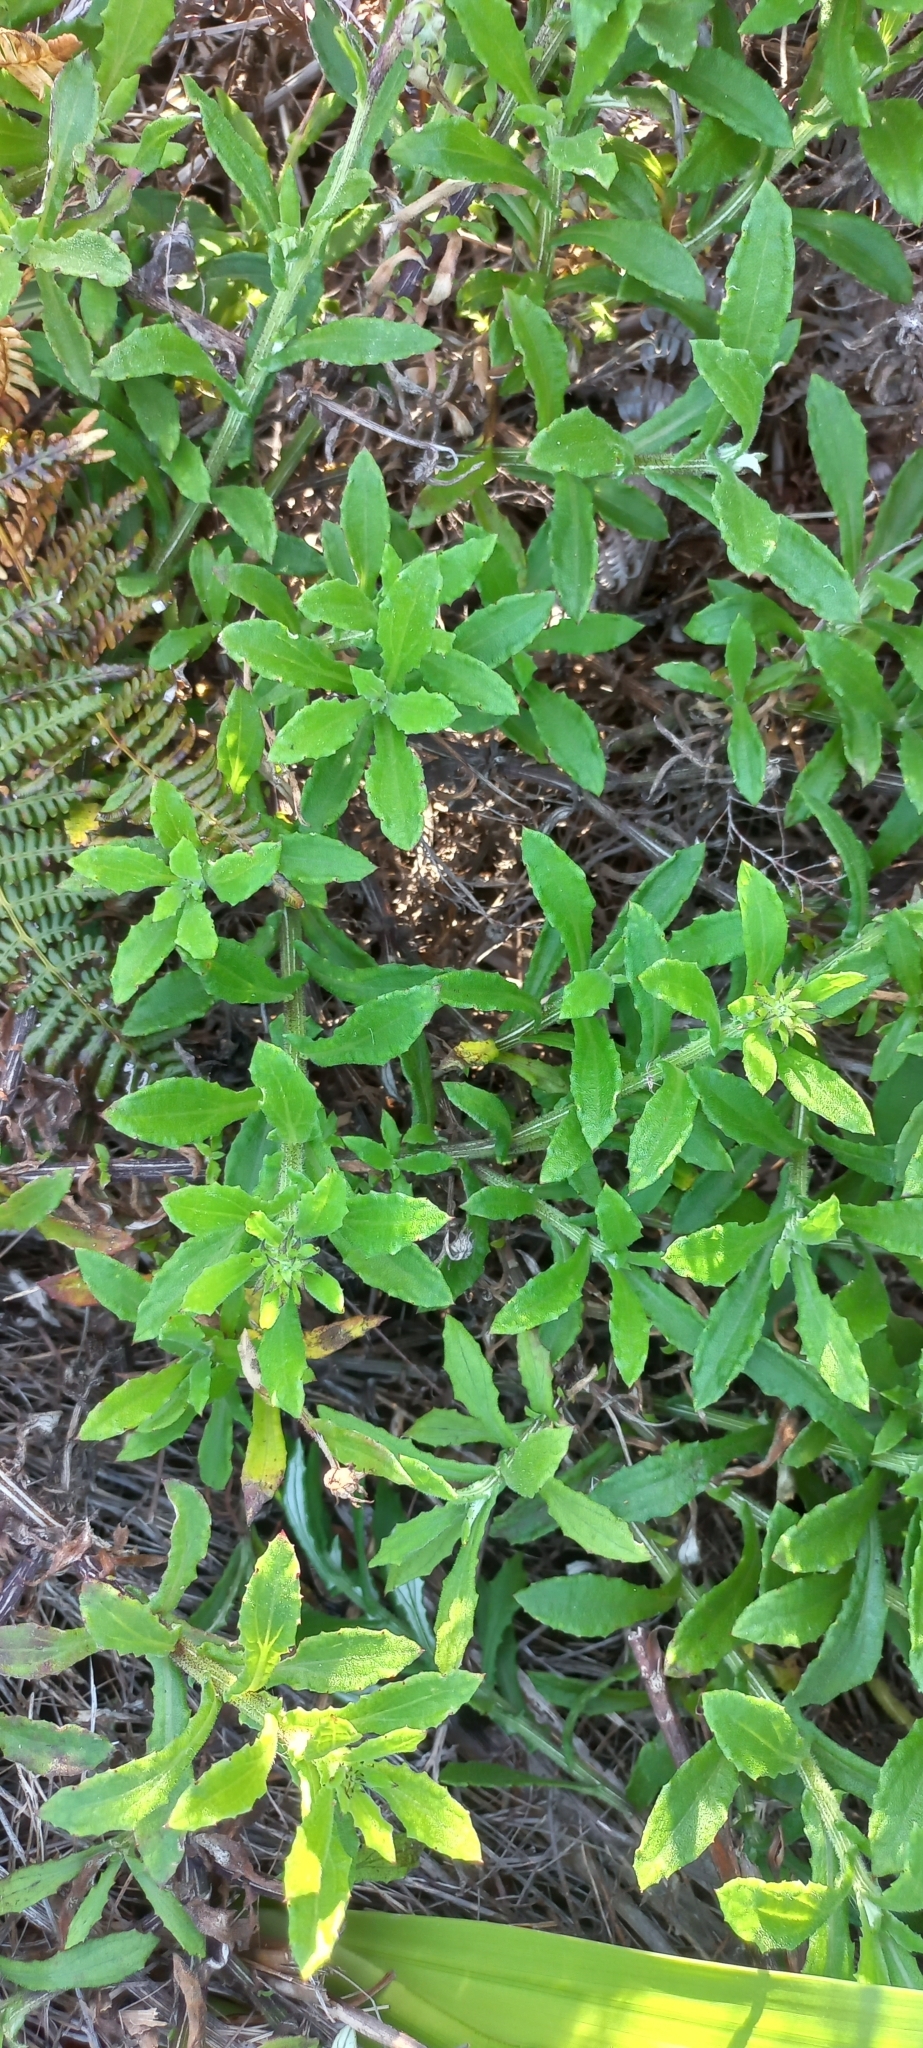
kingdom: Plantae
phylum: Tracheophyta
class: Magnoliopsida
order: Asterales
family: Asteraceae
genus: Arctotis
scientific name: Arctotis scabra
